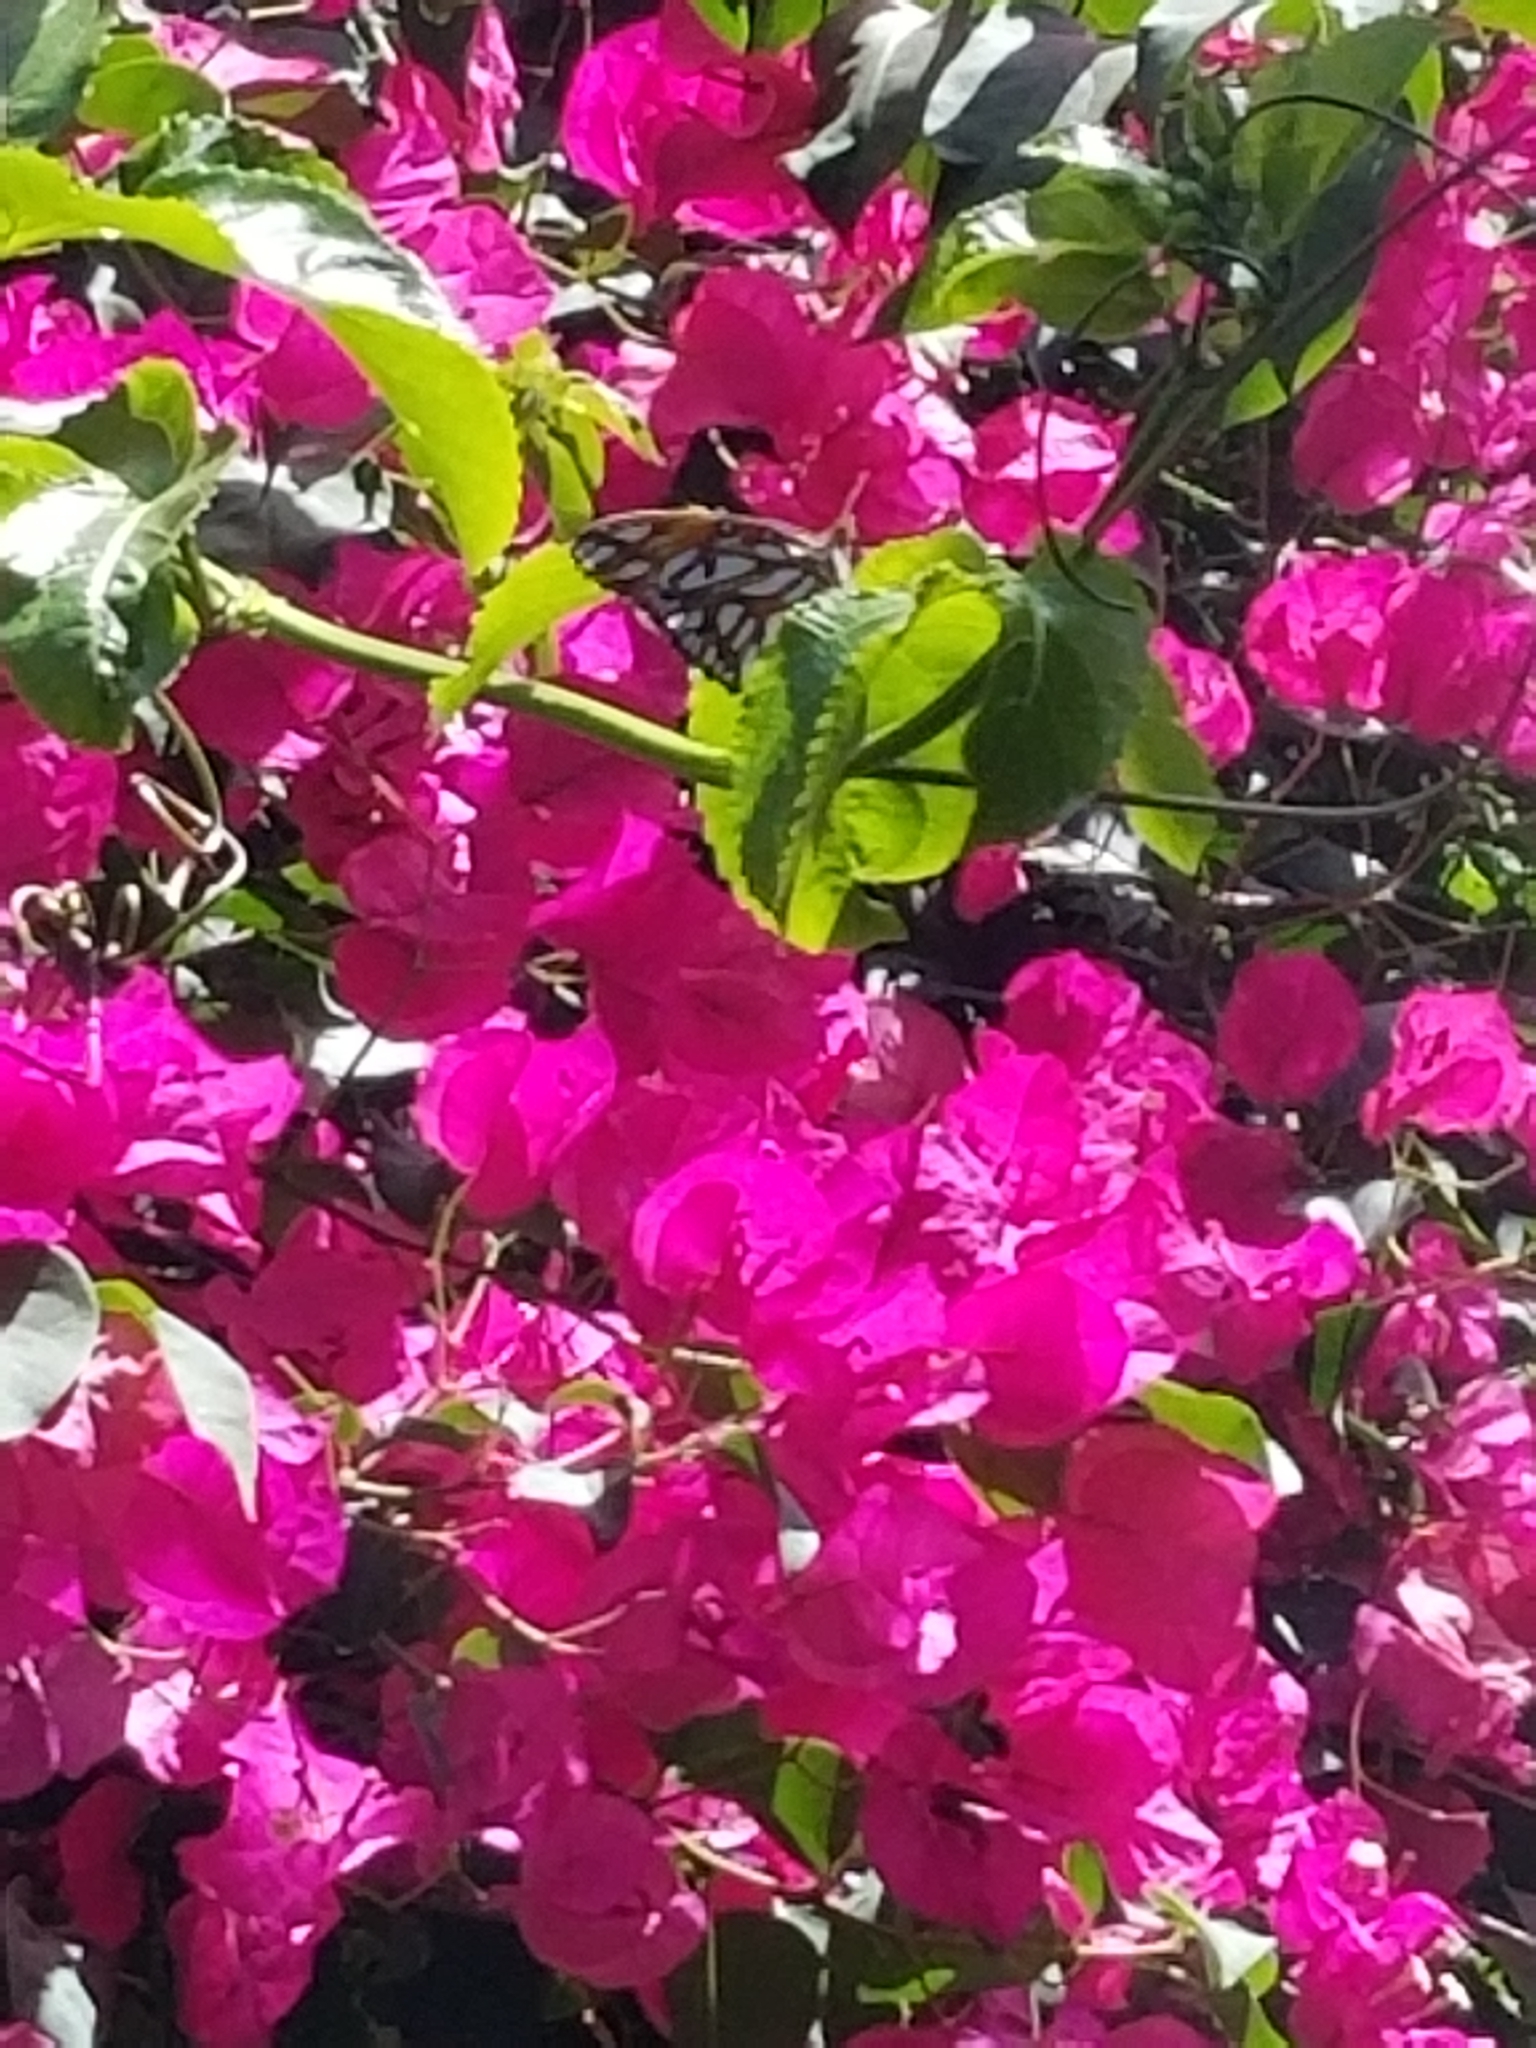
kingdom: Animalia
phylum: Arthropoda
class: Insecta
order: Lepidoptera
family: Nymphalidae
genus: Dione
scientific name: Dione vanillae
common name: Gulf fritillary
